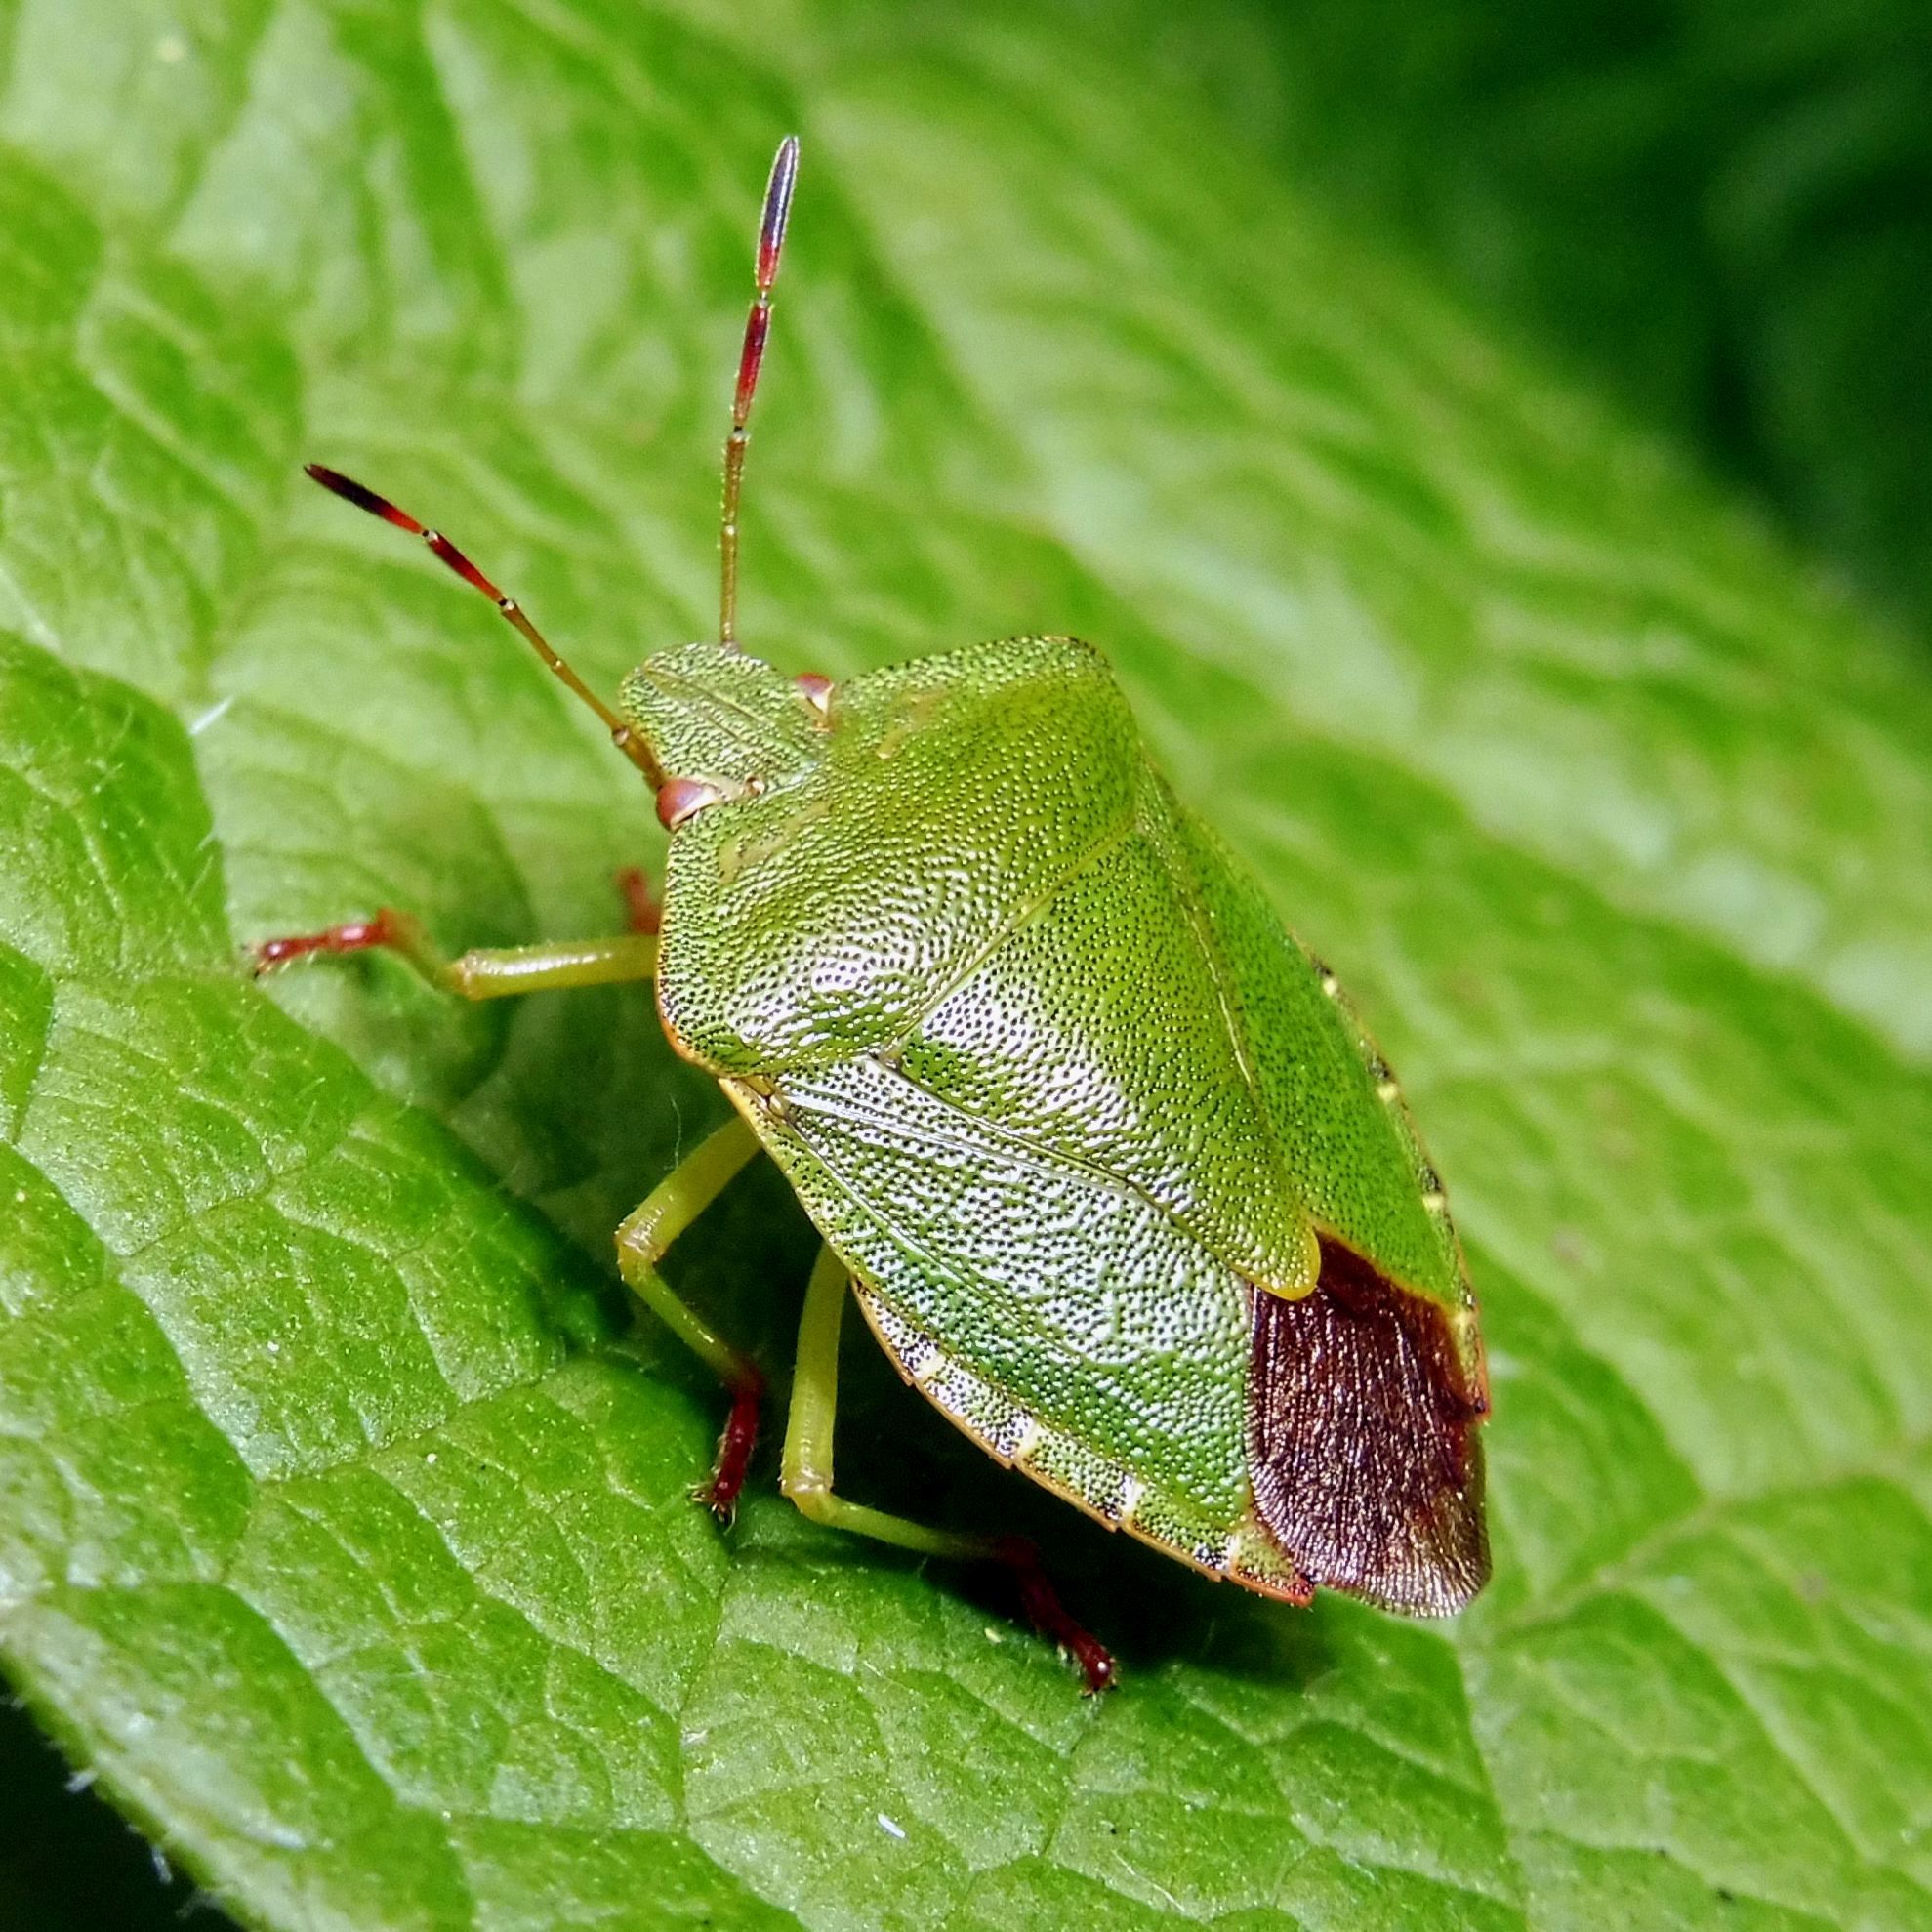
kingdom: Animalia
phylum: Arthropoda
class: Insecta
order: Hemiptera
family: Pentatomidae
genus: Palomena
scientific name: Palomena prasina
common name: Green shieldbug
